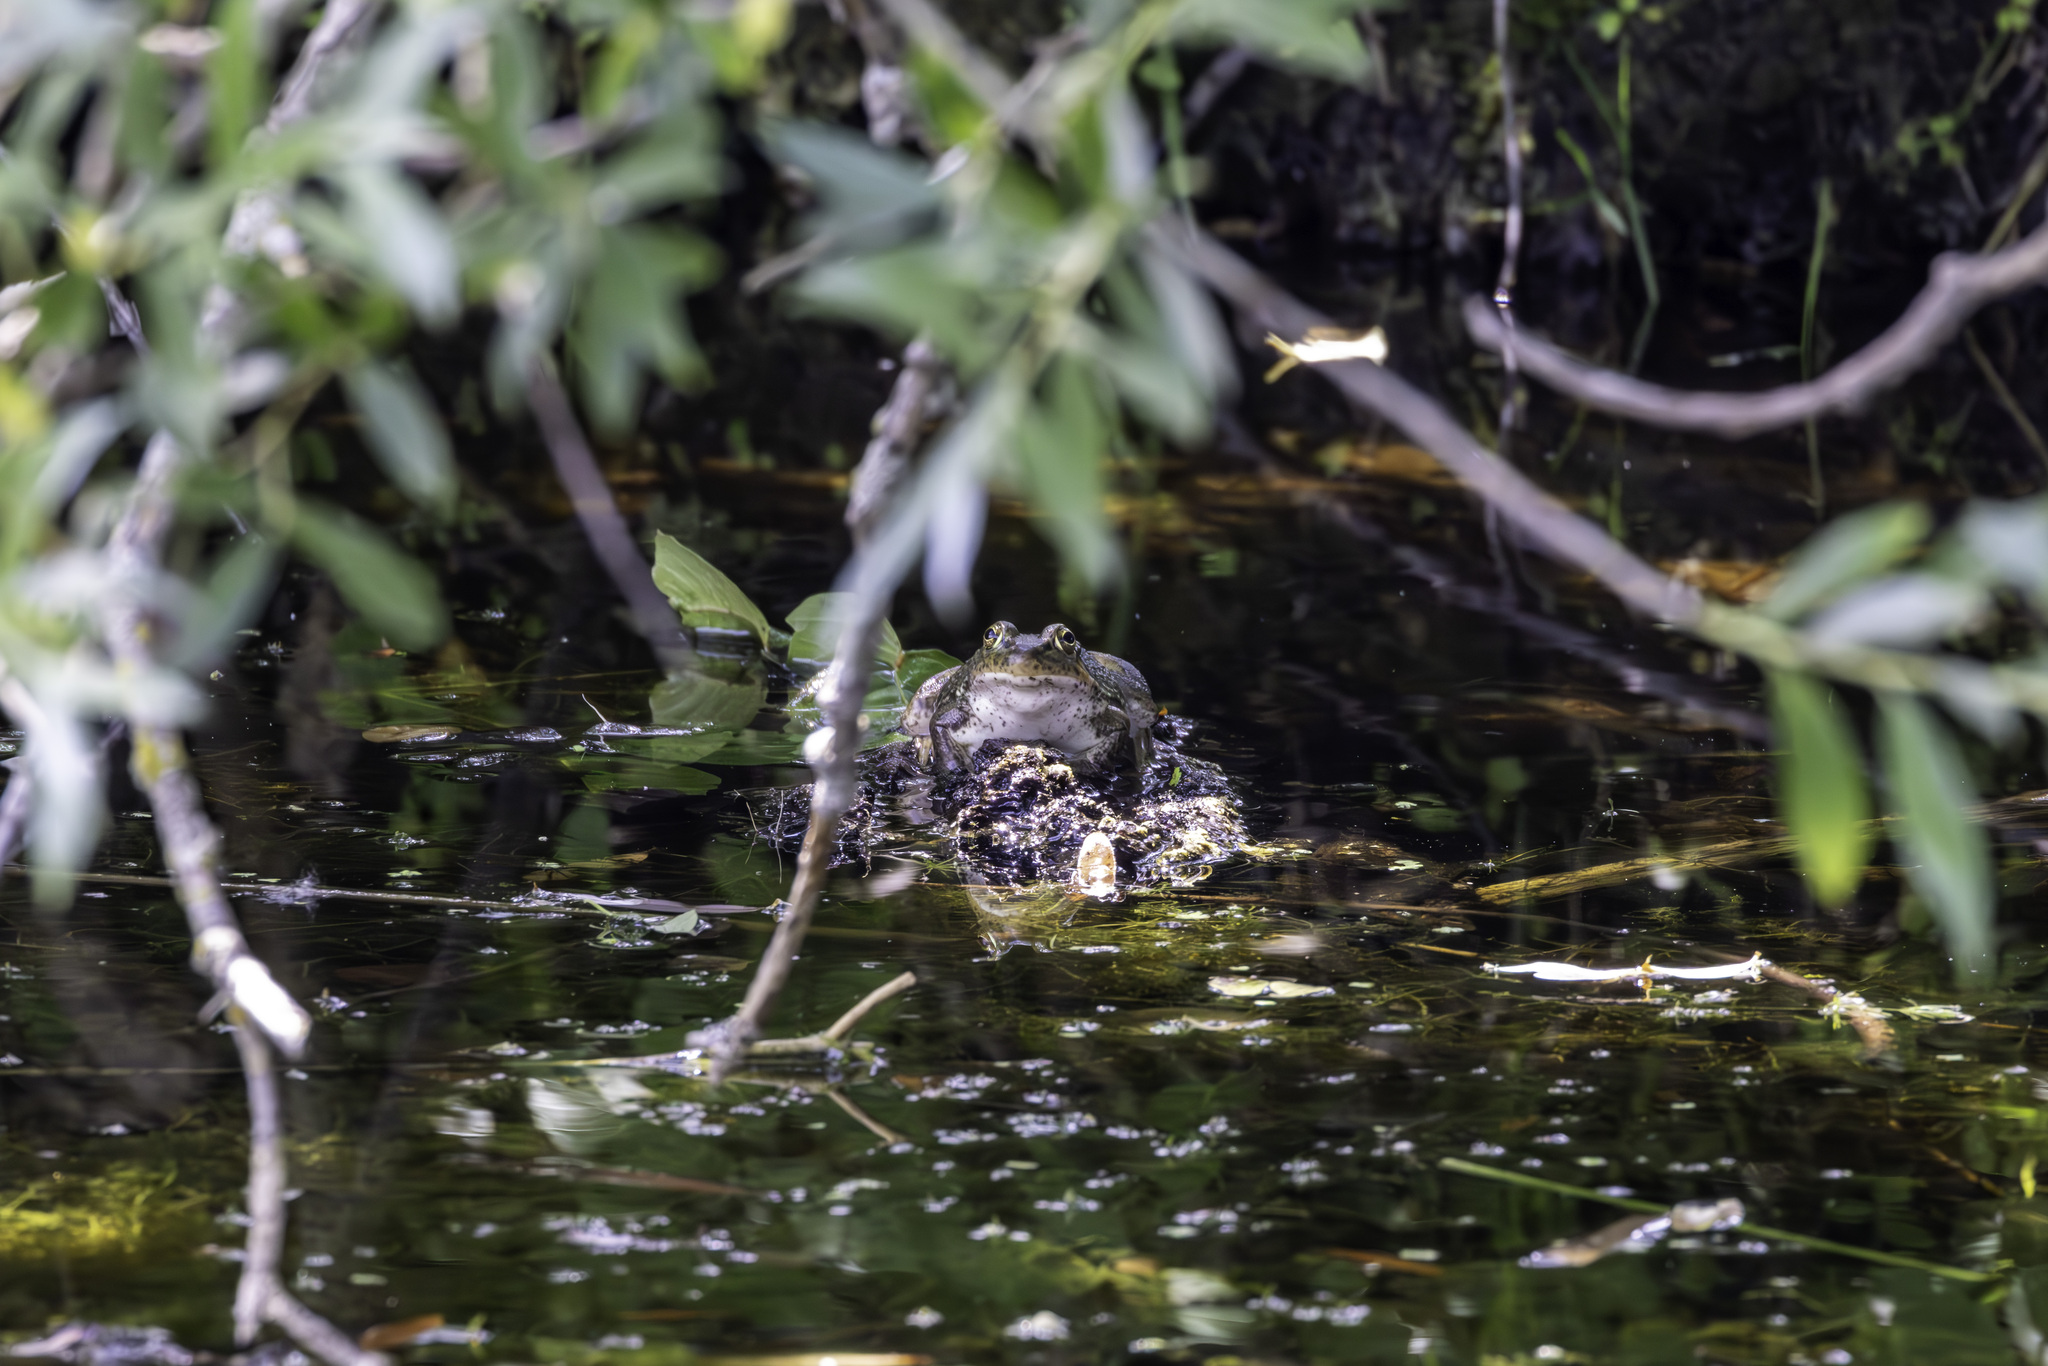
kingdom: Animalia
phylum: Chordata
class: Amphibia
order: Anura
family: Ranidae
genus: Lithobates
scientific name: Lithobates catesbeianus
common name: American bullfrog
